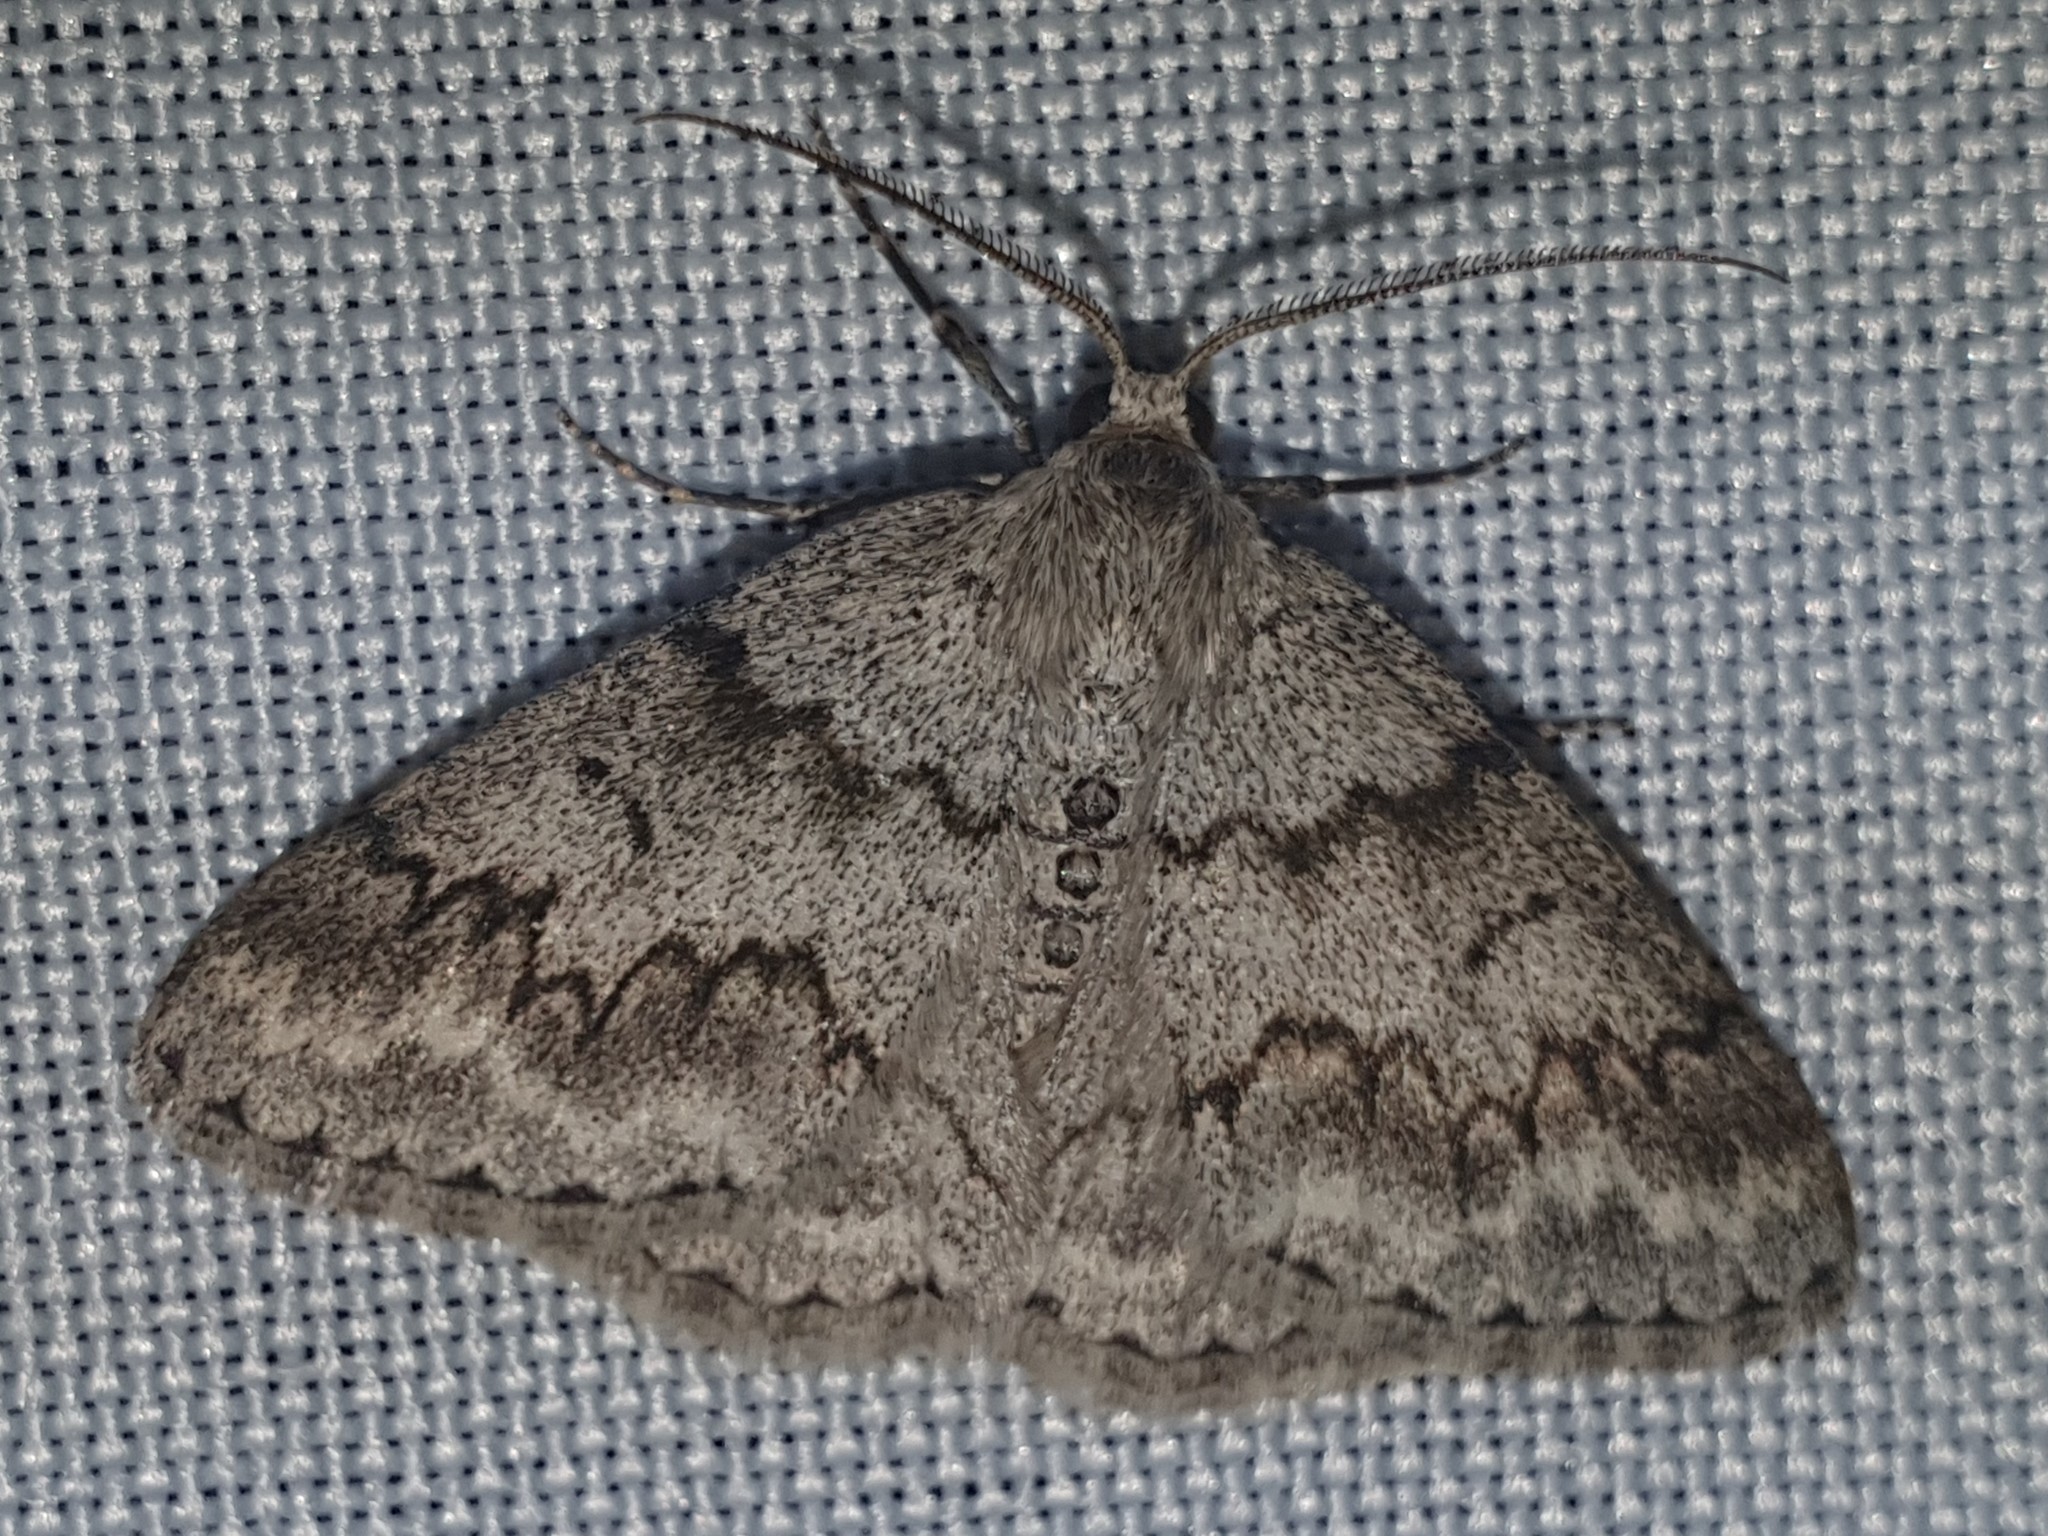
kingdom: Animalia
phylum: Arthropoda
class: Insecta
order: Lepidoptera
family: Geometridae
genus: Pseudoterpna
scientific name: Pseudoterpna coronillaria
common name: Jersey emerald
